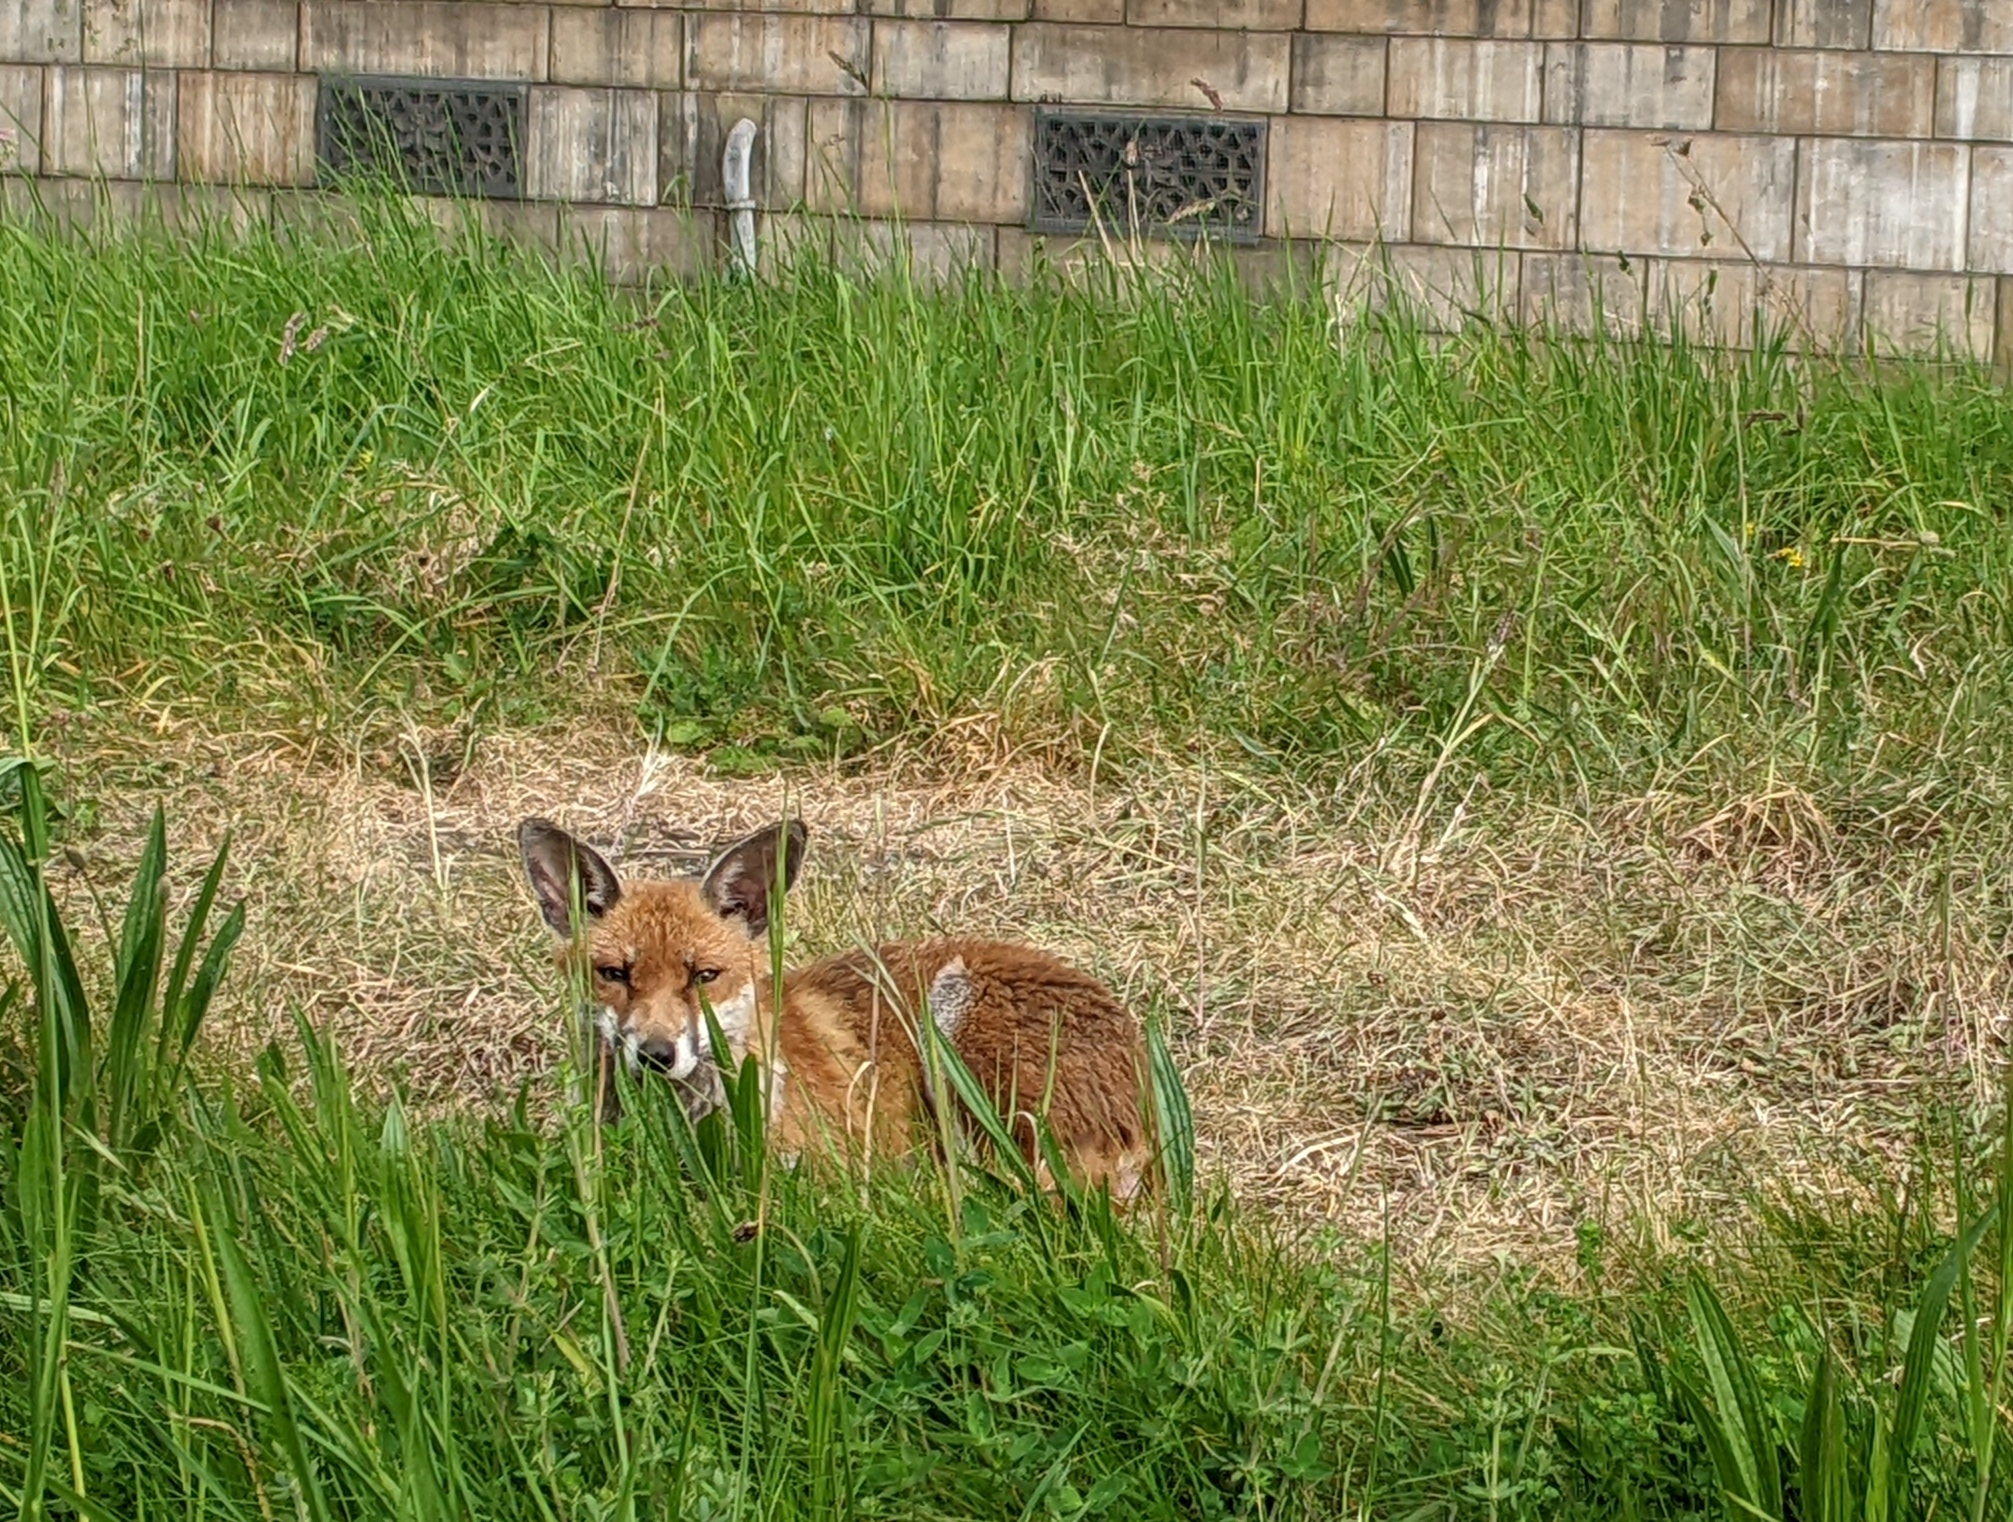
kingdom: Animalia
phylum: Chordata
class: Mammalia
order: Carnivora
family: Canidae
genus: Vulpes
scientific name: Vulpes vulpes
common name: Red fox
